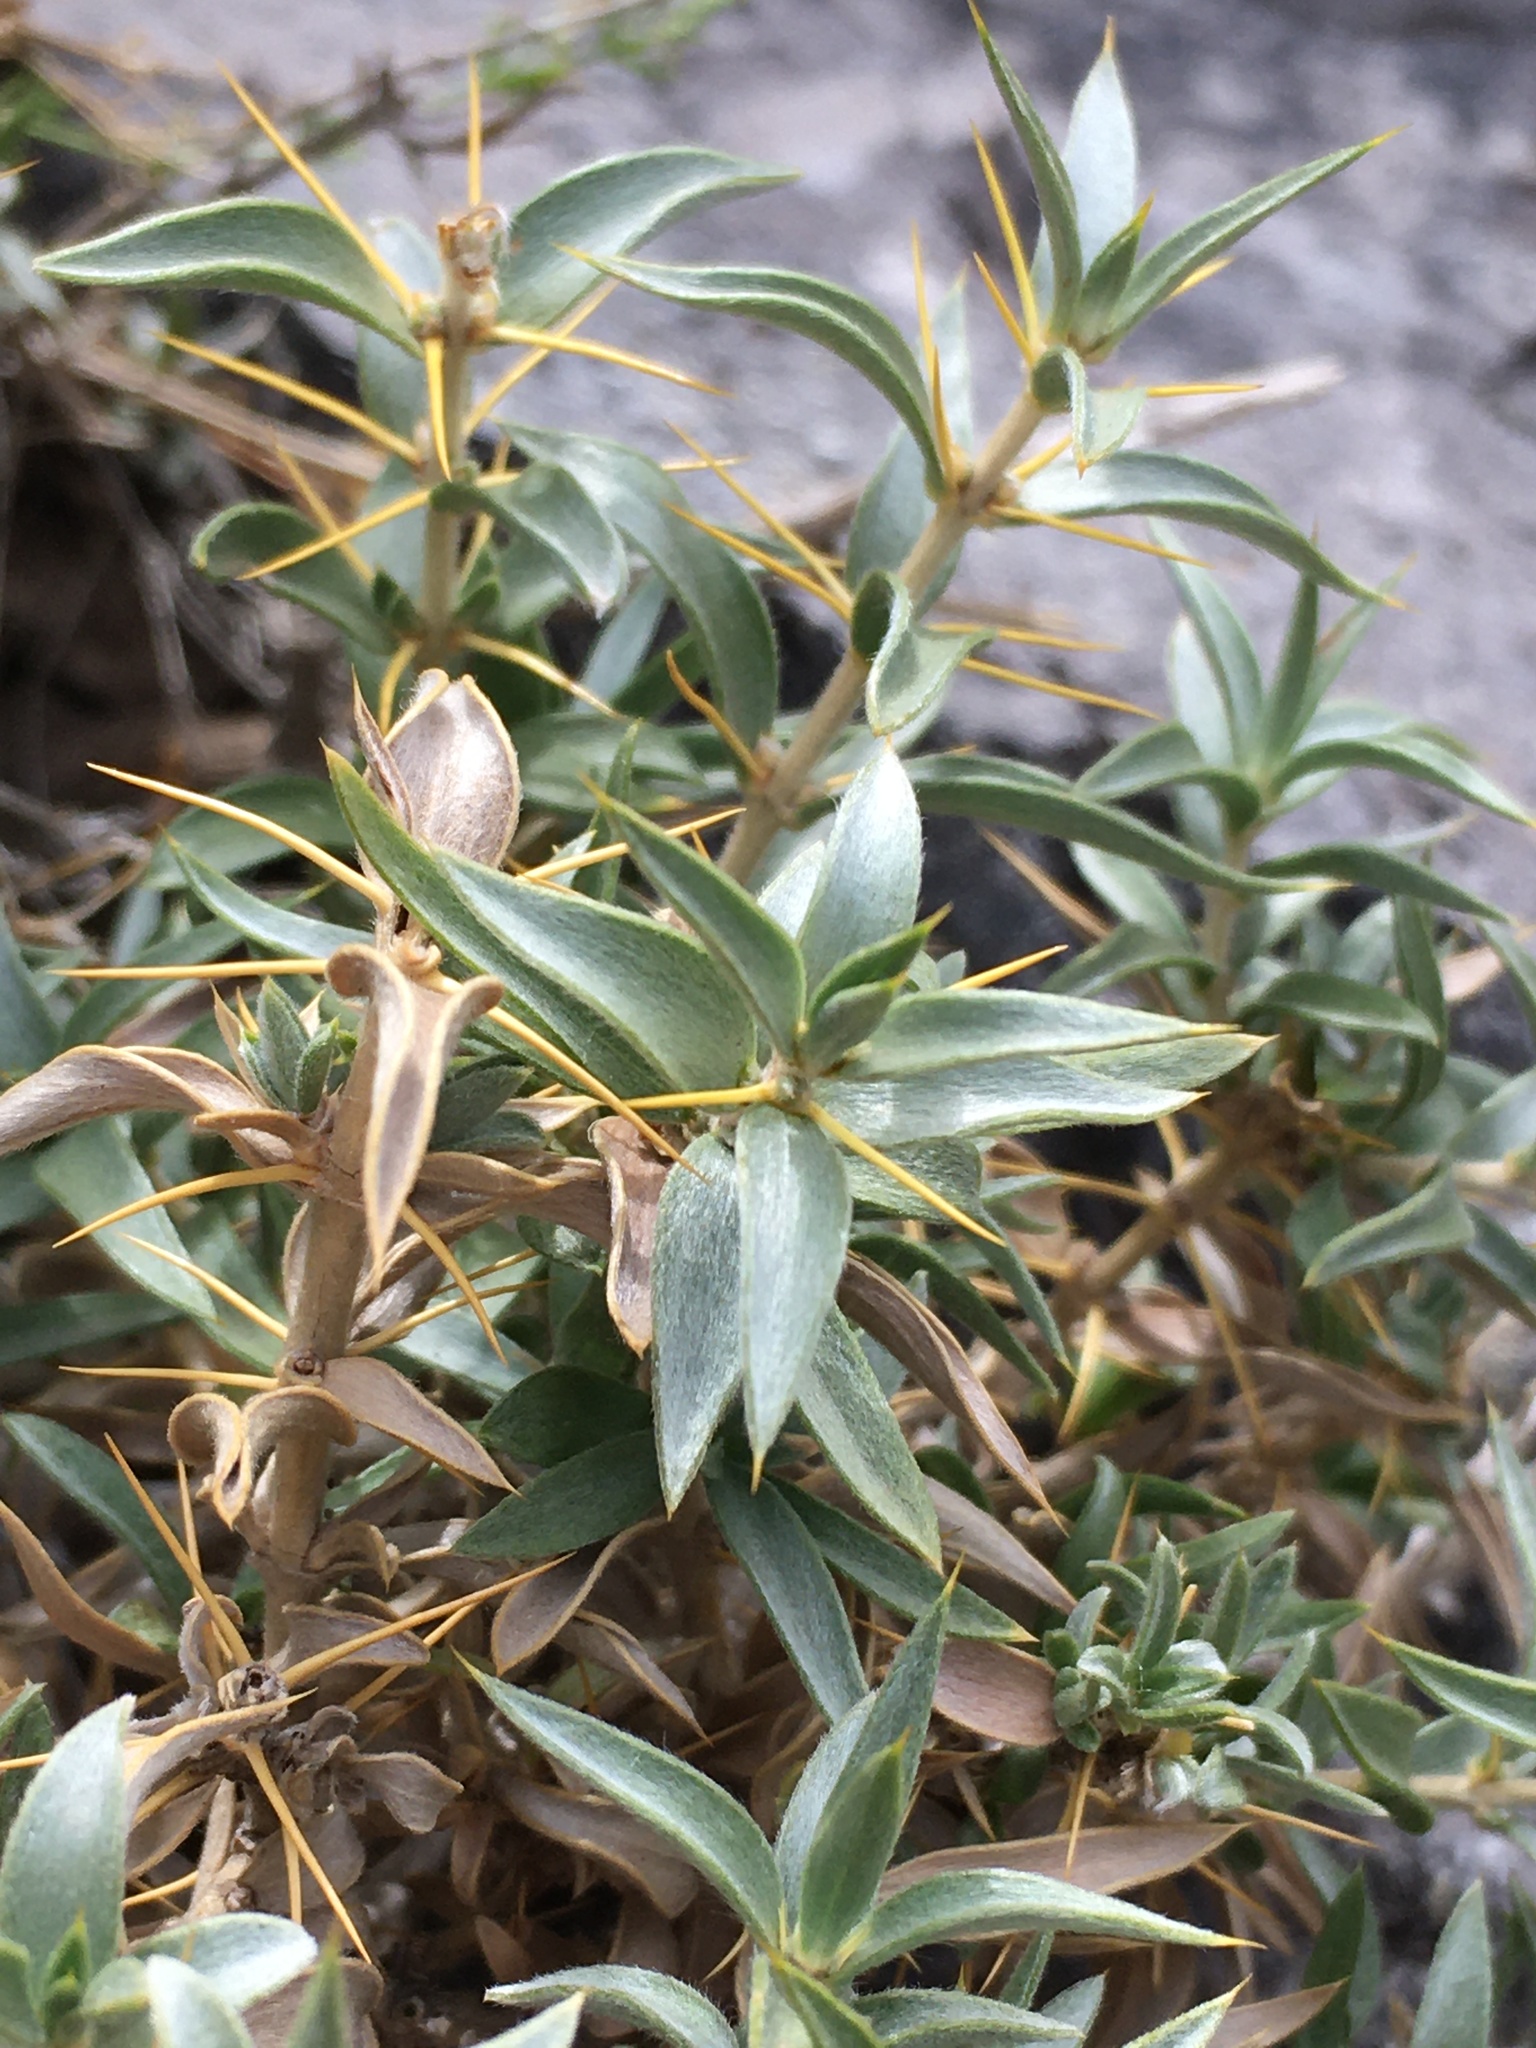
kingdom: Plantae
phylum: Tracheophyta
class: Magnoliopsida
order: Asterales
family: Asteraceae
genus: Chuquiraga
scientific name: Chuquiraga oppositifolia
